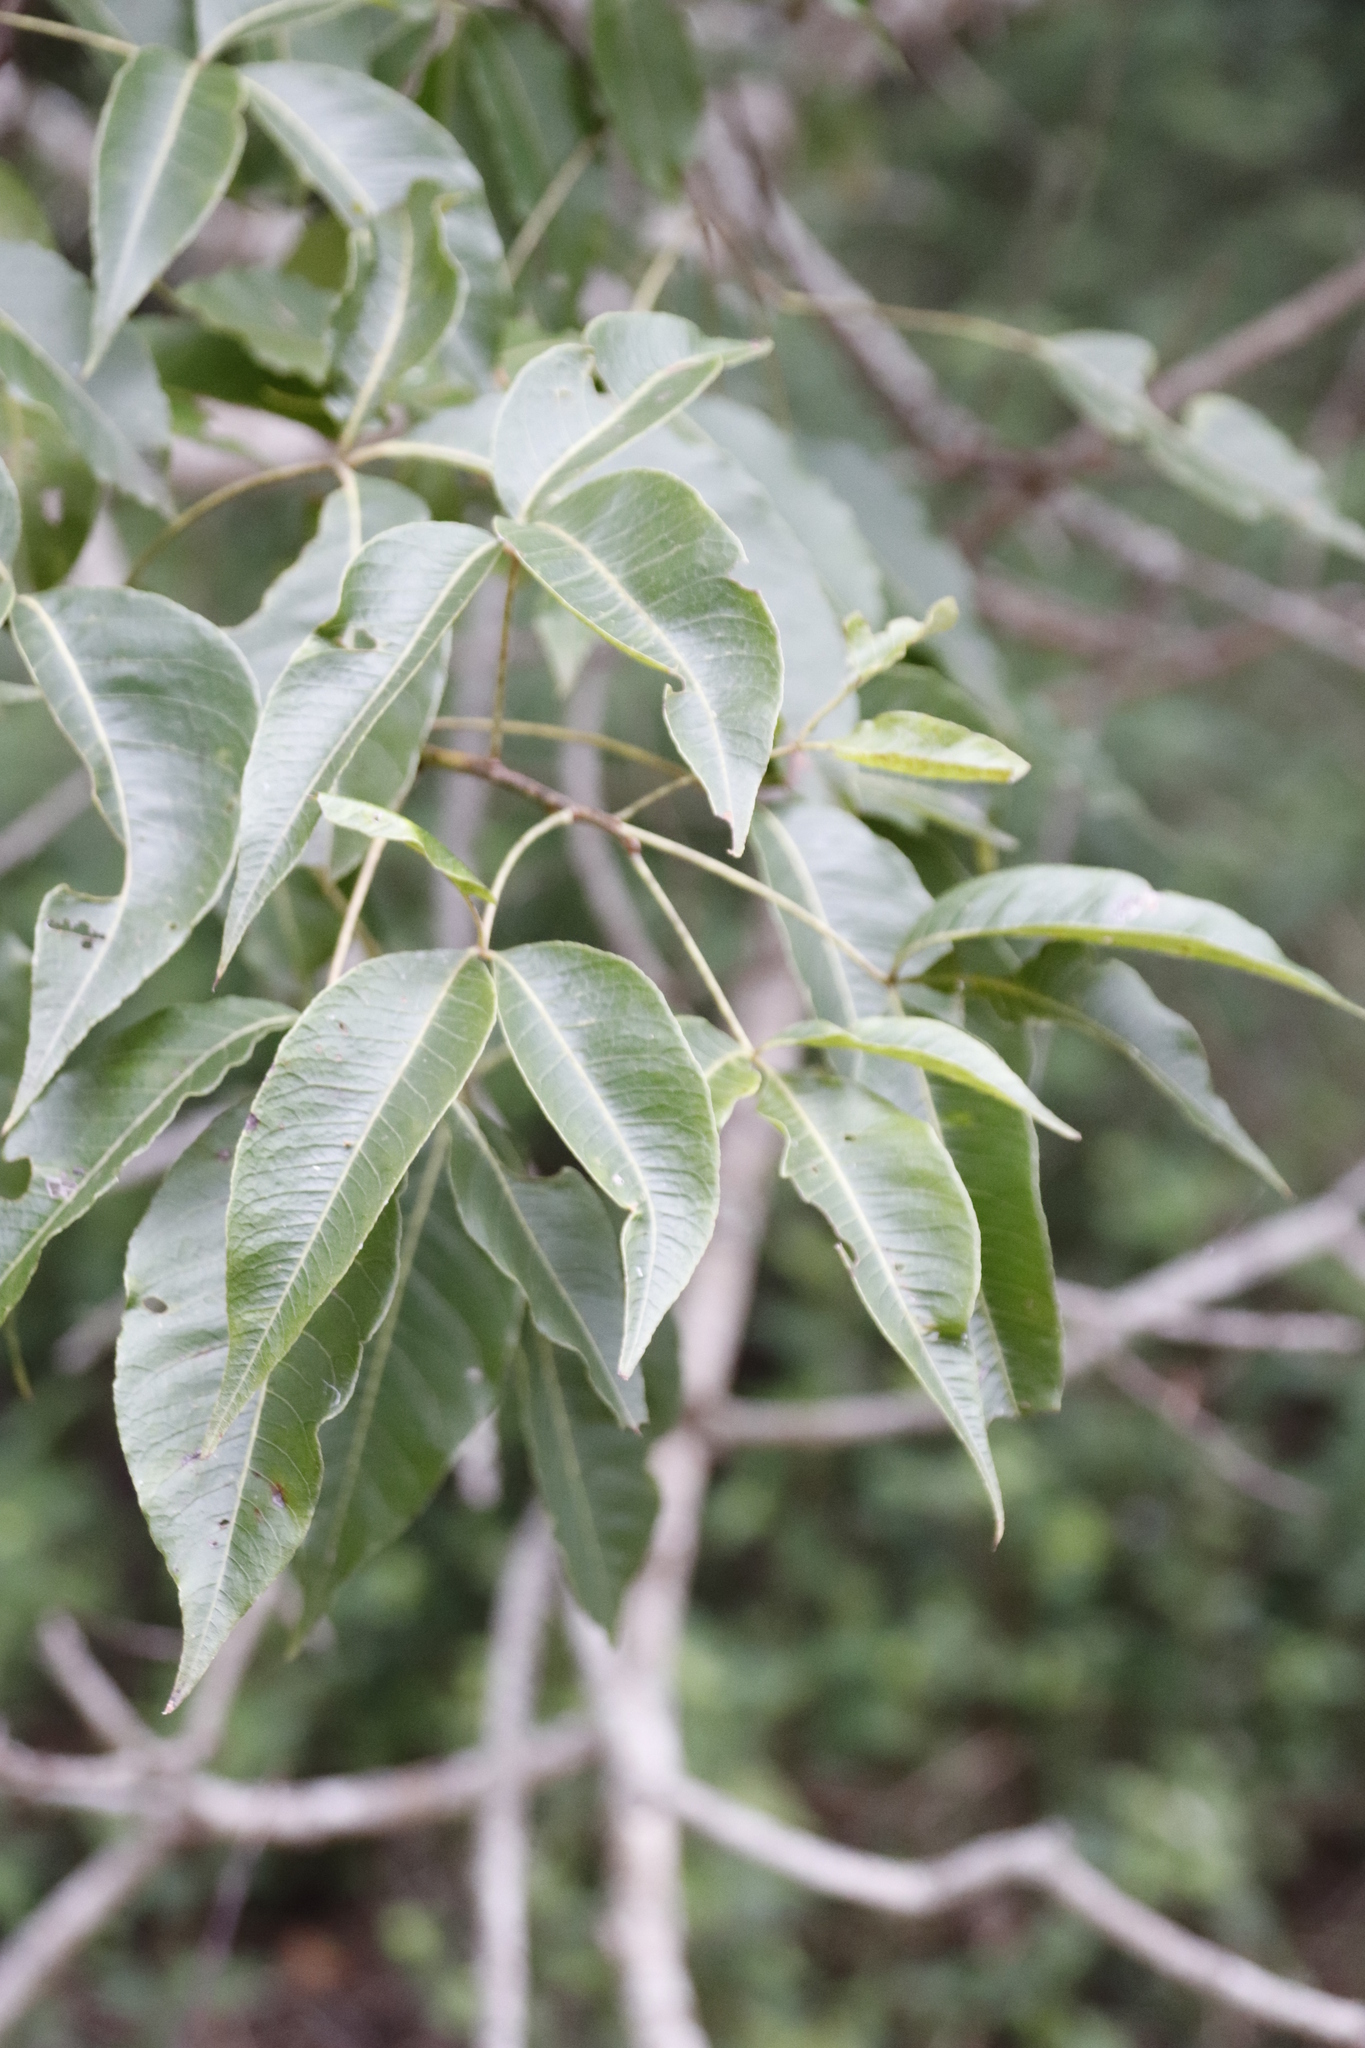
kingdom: Plantae
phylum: Tracheophyta
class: Magnoliopsida
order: Sapindales
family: Anacardiaceae
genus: Searsia
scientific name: Searsia chirindensis
